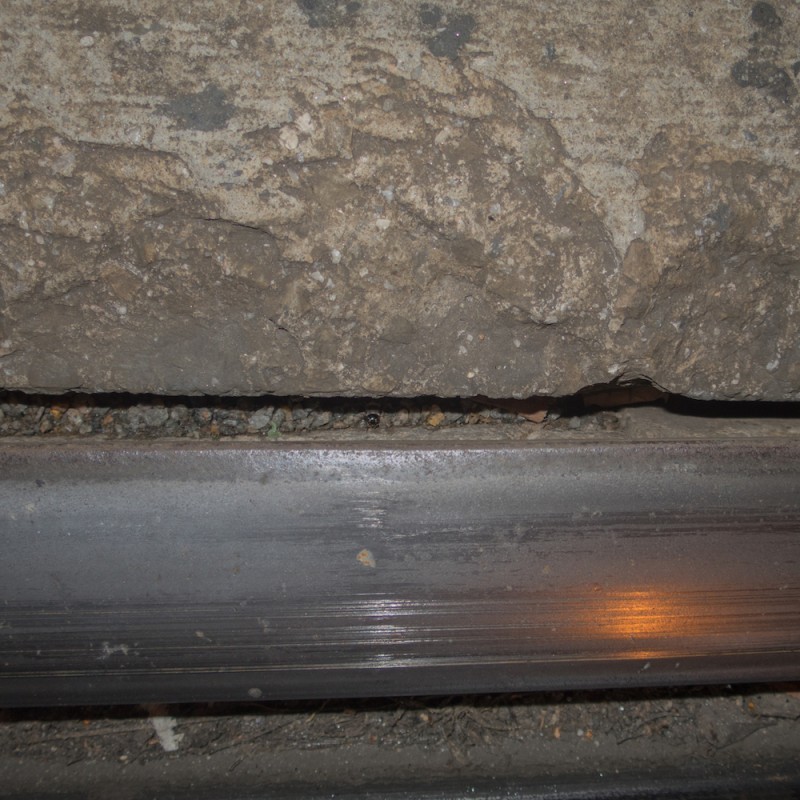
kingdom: Animalia
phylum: Arthropoda
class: Insecta
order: Orthoptera
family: Gryllidae
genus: Eumodicogryllus
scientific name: Eumodicogryllus bordigalensis
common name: Bordeaux cricket
